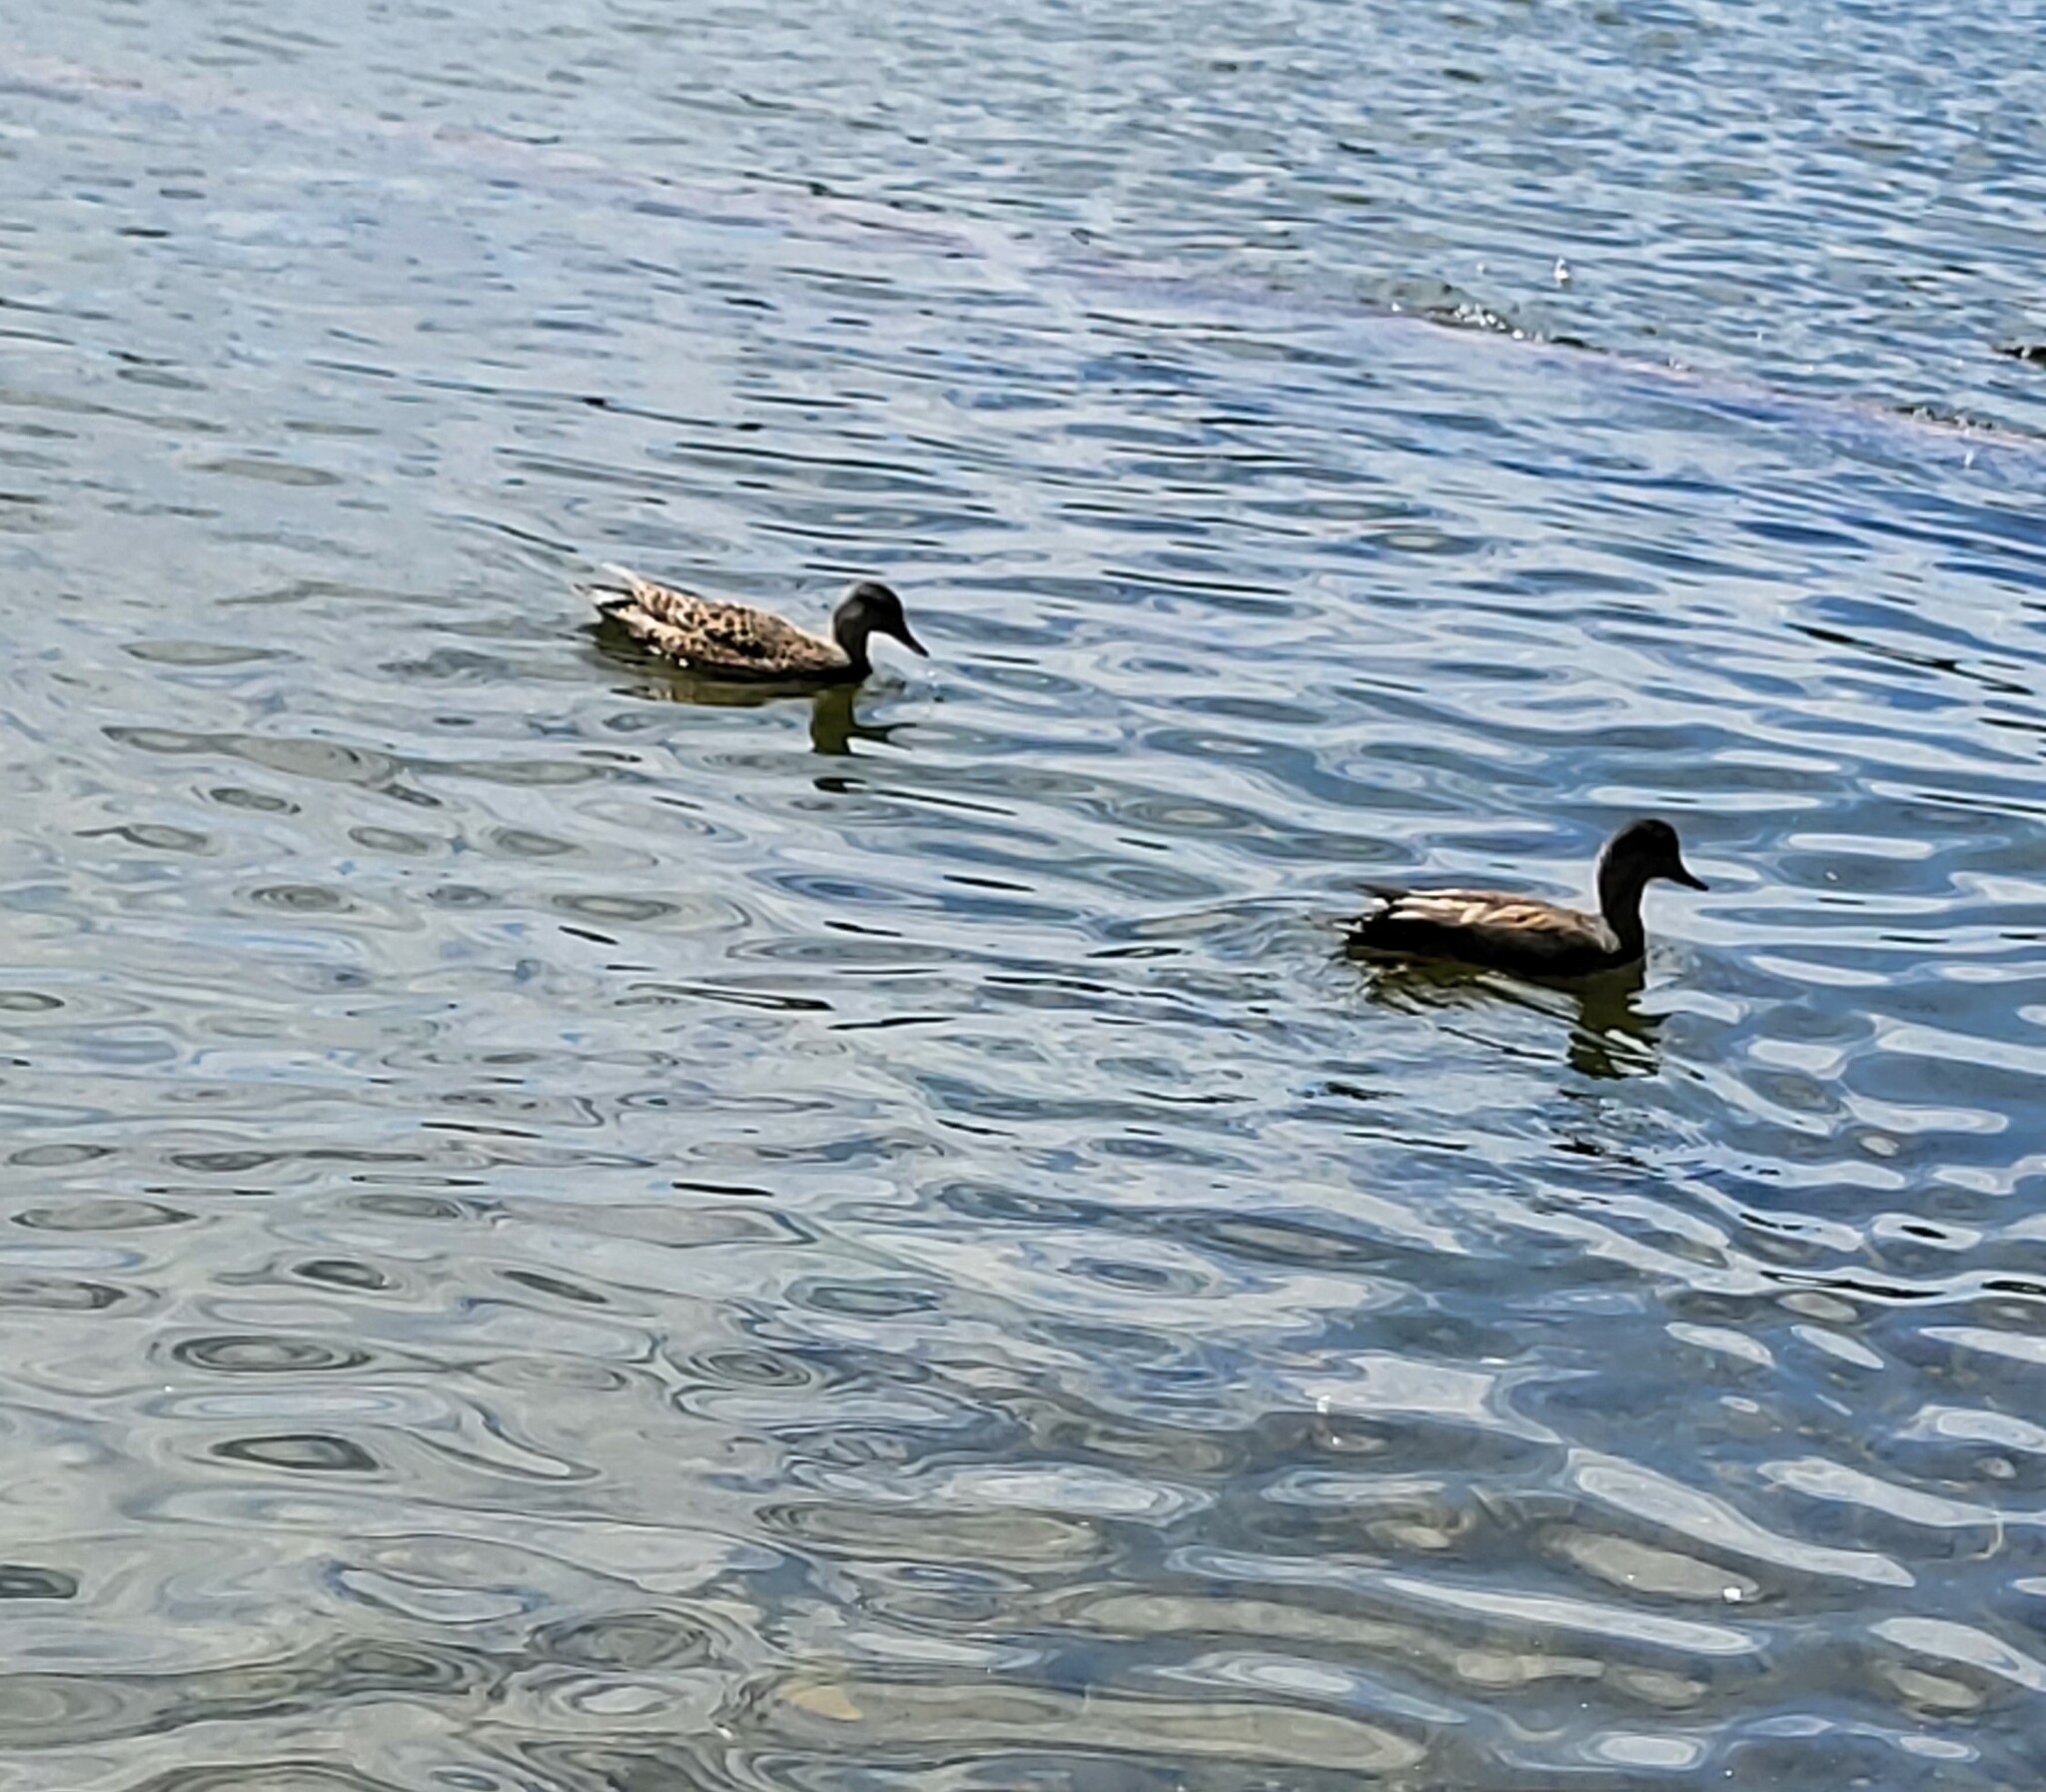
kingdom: Animalia
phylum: Chordata
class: Aves
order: Anseriformes
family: Anatidae
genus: Mareca
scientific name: Mareca strepera
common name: Gadwall
